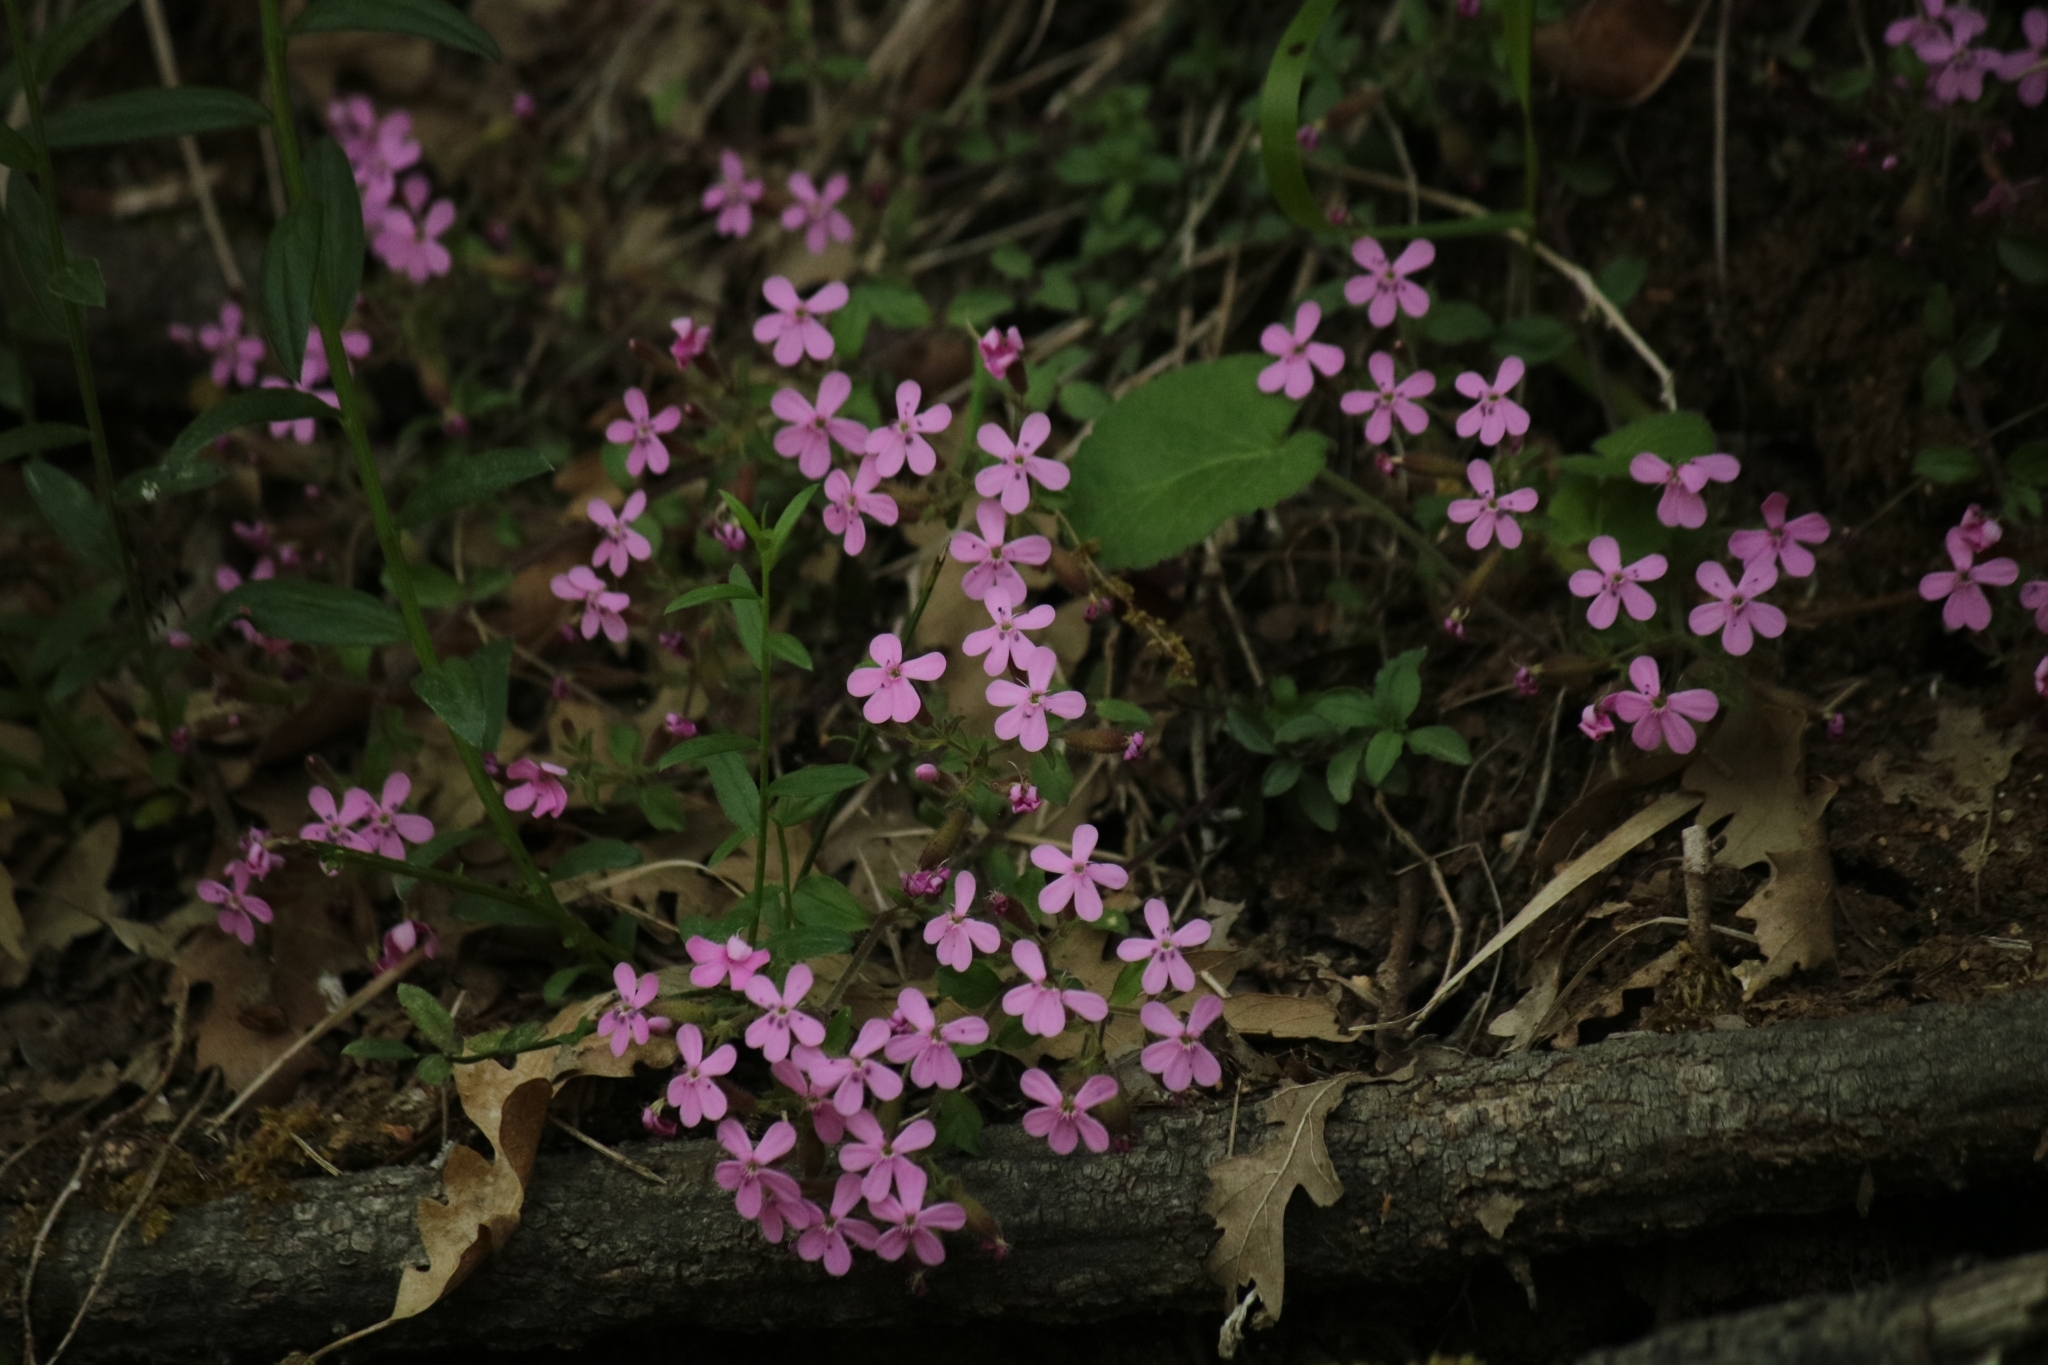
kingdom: Plantae
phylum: Tracheophyta
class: Magnoliopsida
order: Caryophyllales
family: Caryophyllaceae
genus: Saponaria
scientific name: Saponaria ocymoides
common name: Rock soapwort
